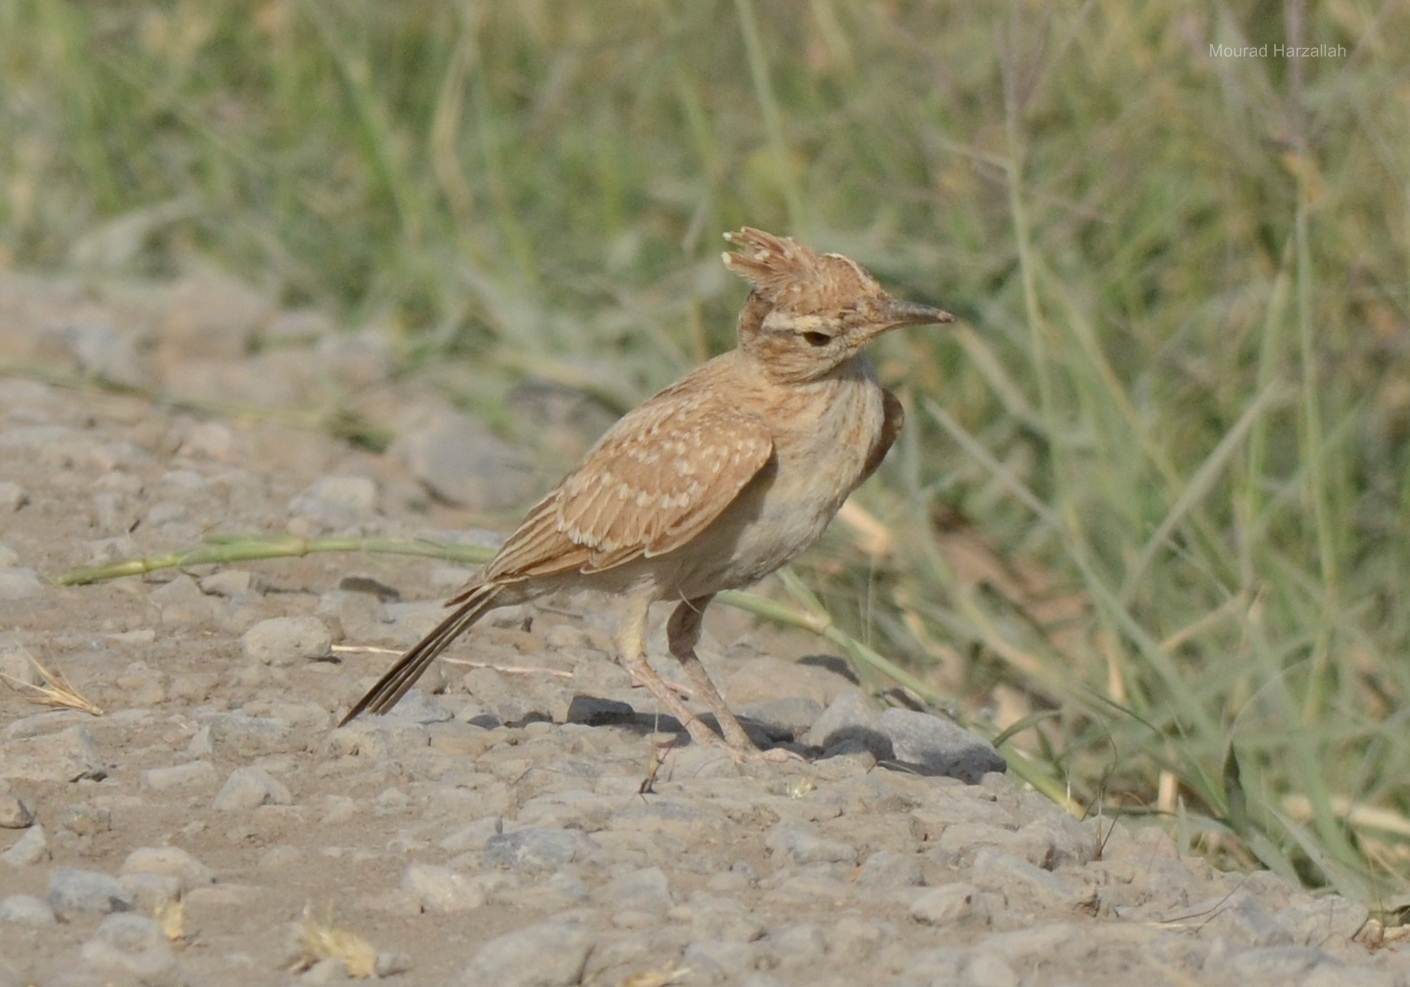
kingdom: Animalia
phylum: Chordata
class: Aves
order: Passeriformes
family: Alaudidae
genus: Galerida
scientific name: Galerida cristata
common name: Crested lark
